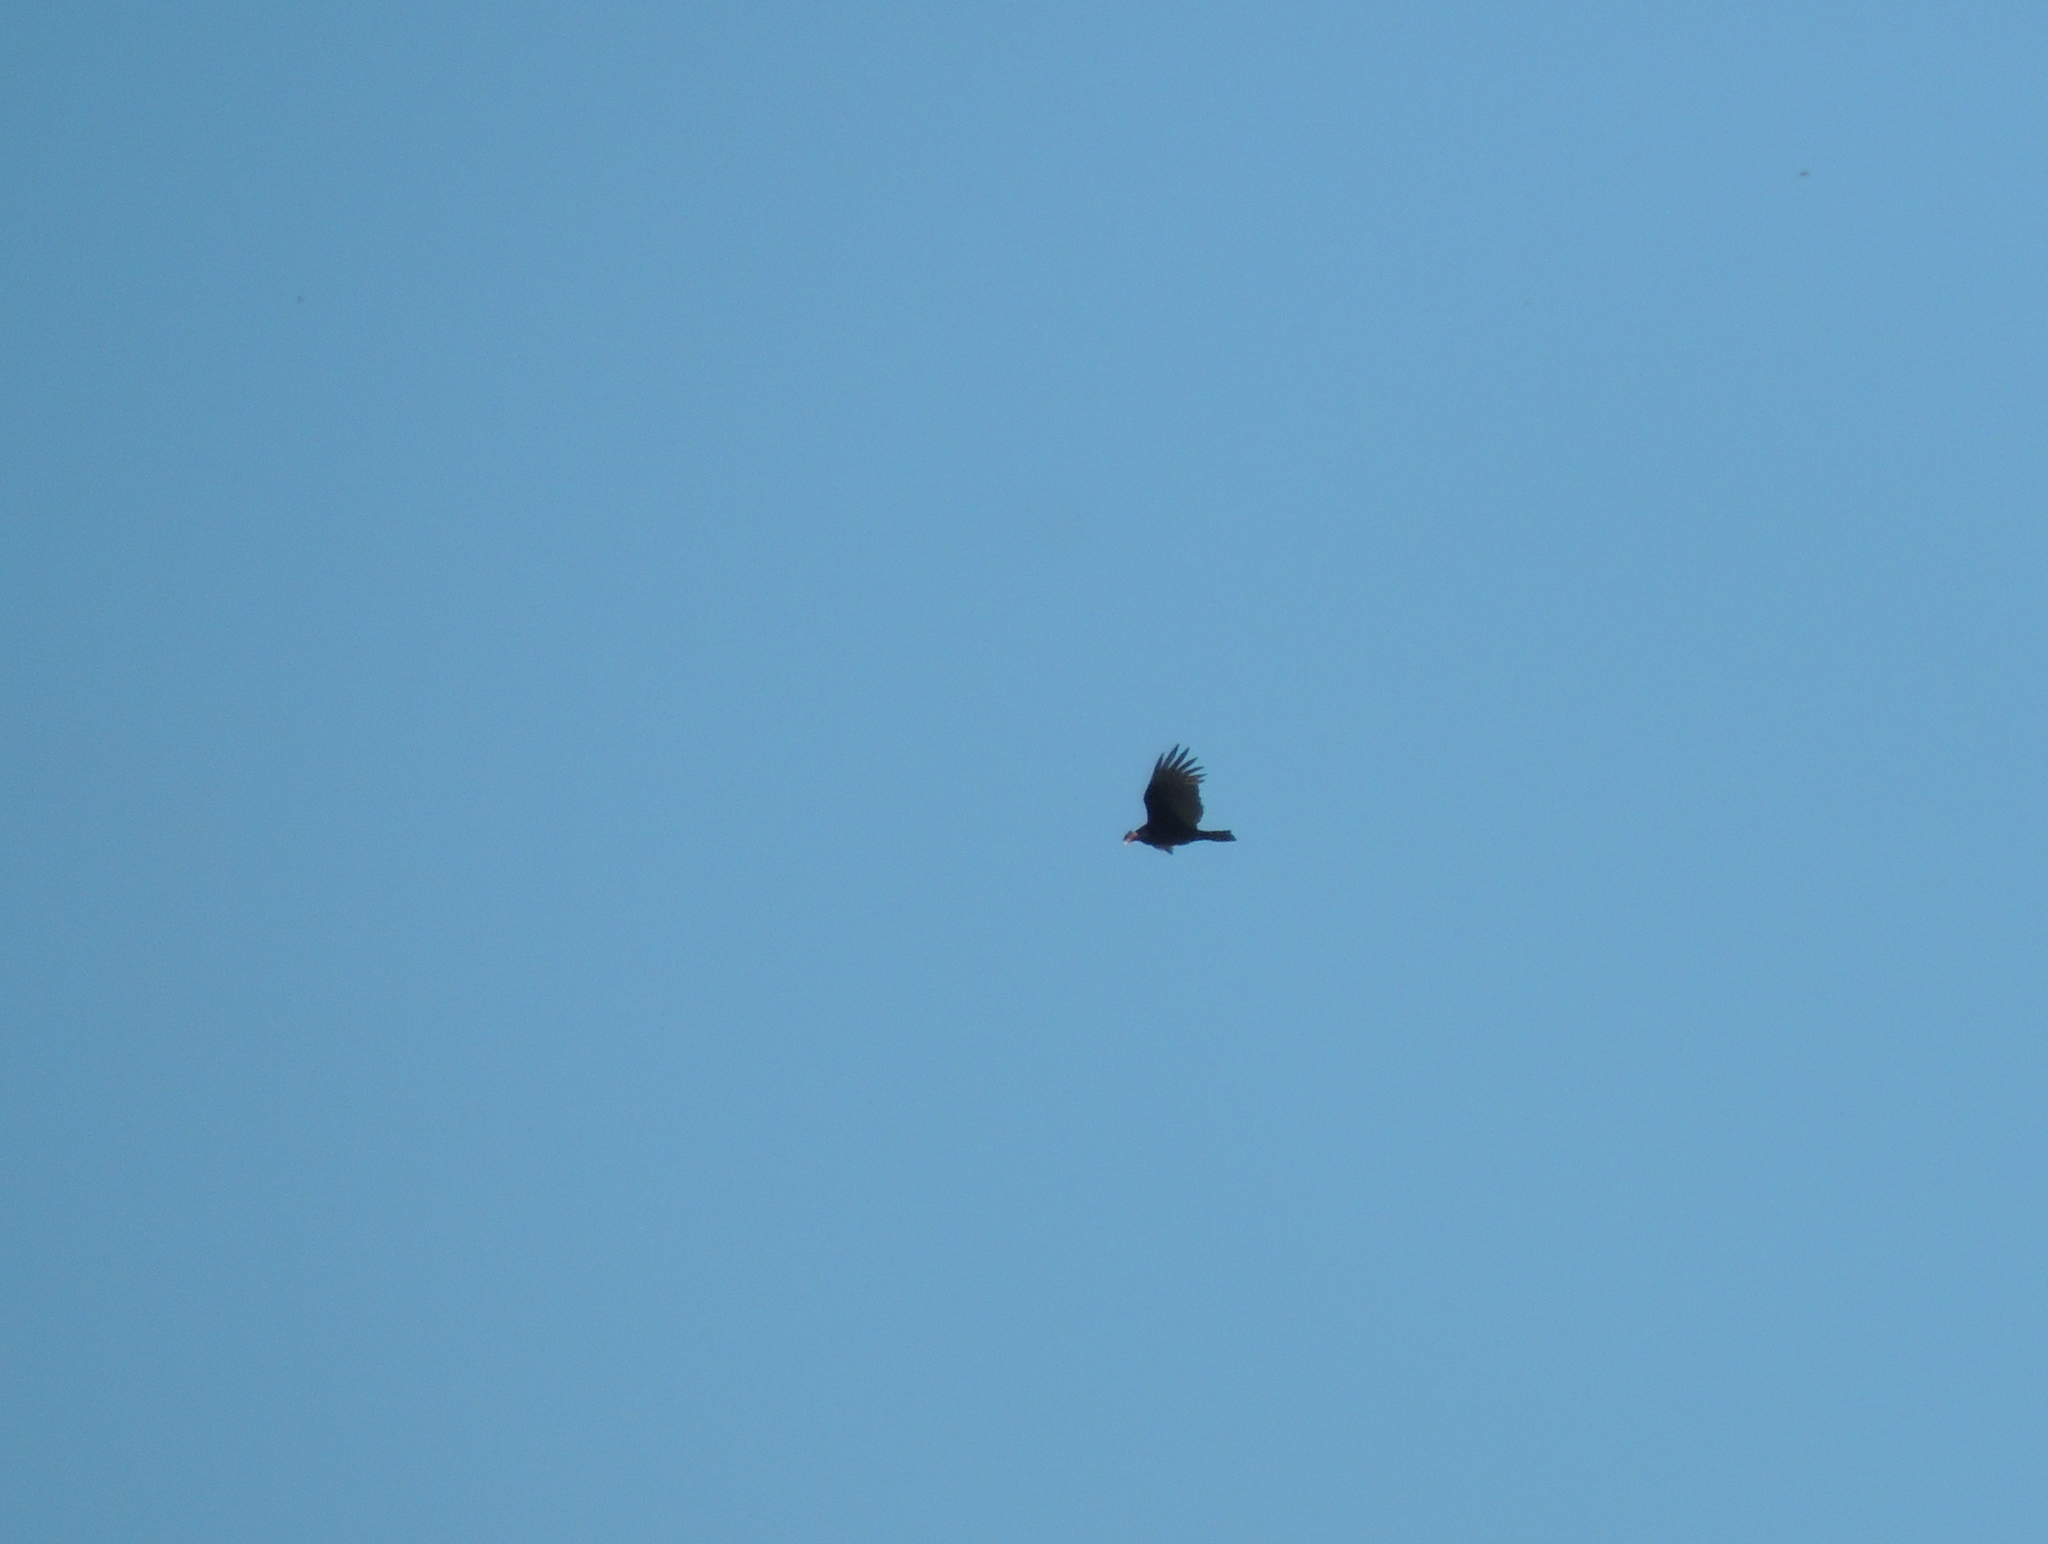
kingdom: Animalia
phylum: Chordata
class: Aves
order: Accipitriformes
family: Cathartidae
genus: Cathartes
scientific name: Cathartes aura
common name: Turkey vulture
